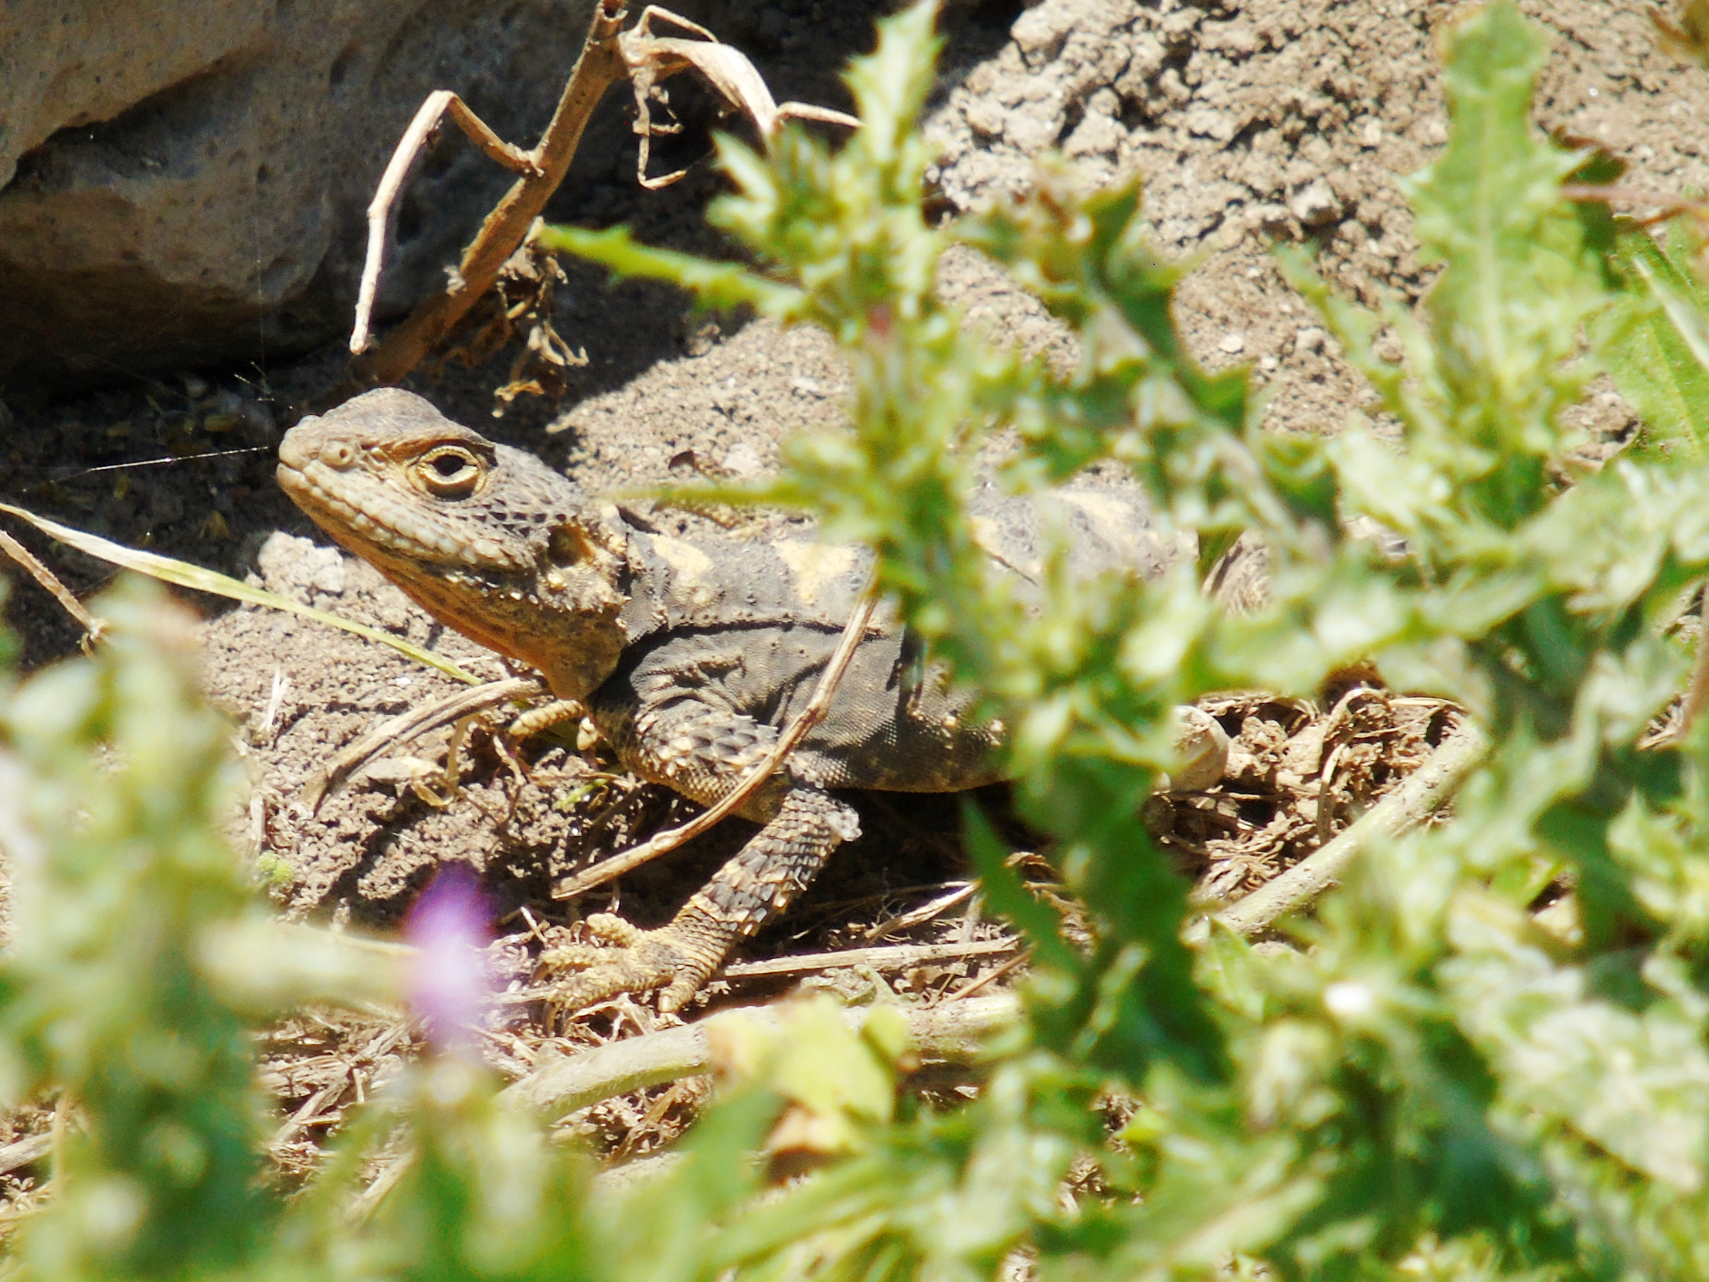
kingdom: Animalia
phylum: Chordata
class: Squamata
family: Agamidae
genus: Stellagama
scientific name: Stellagama stellio
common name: Starred agama
